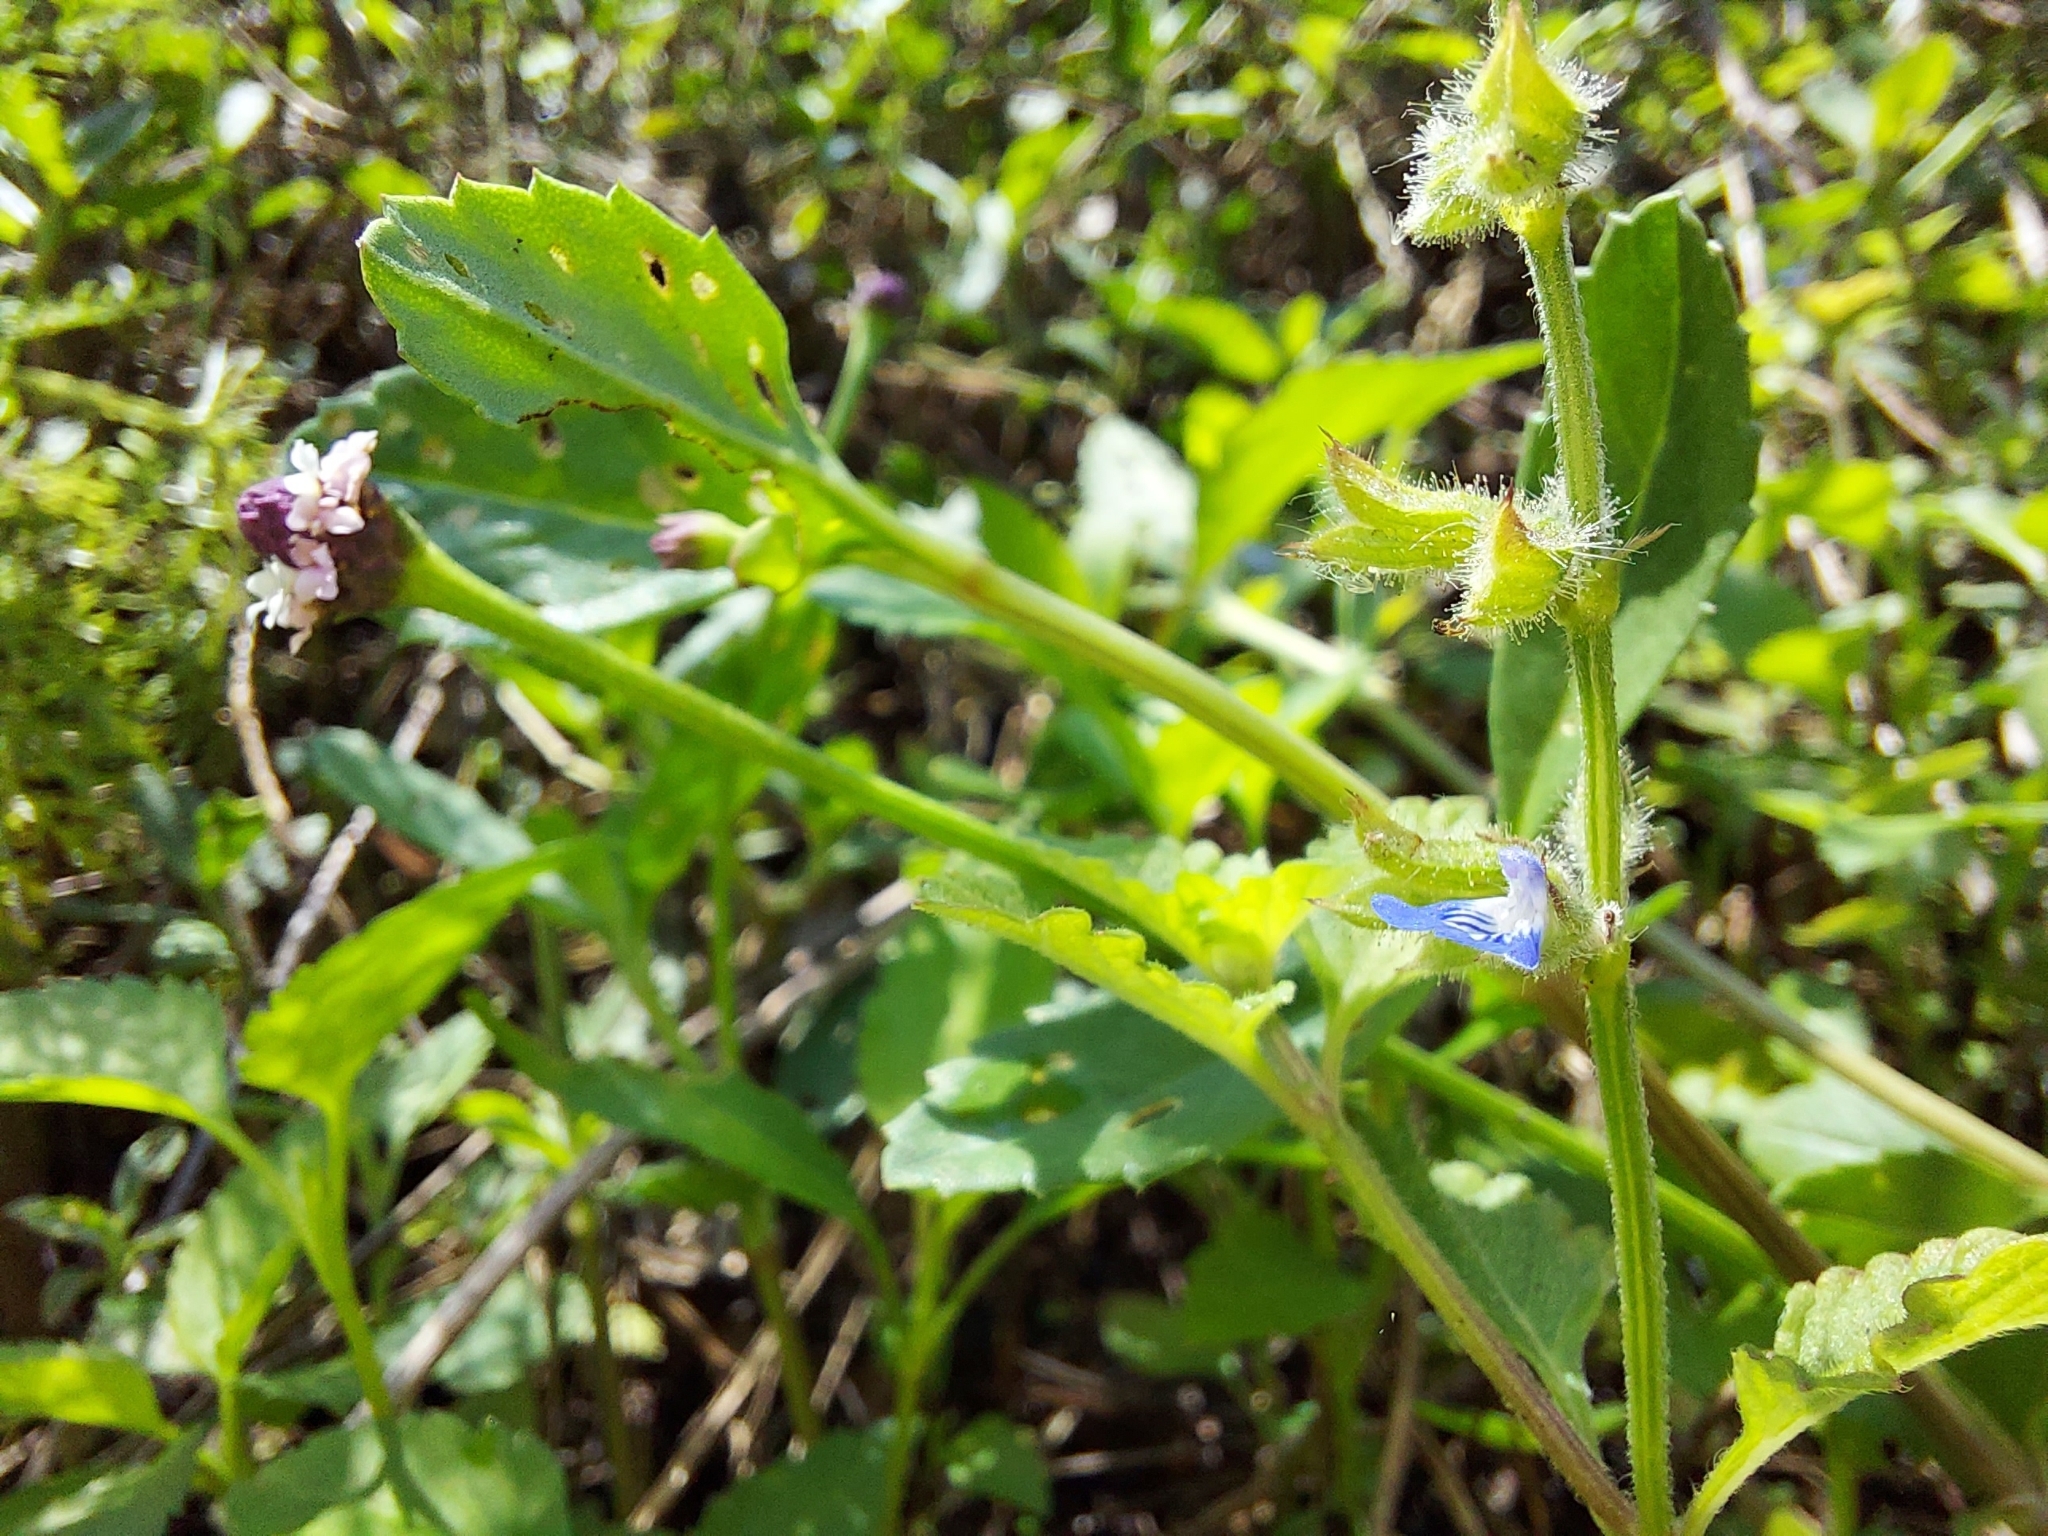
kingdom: Plantae
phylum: Tracheophyta
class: Magnoliopsida
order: Lamiales
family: Lamiaceae
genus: Salvia
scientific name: Salvia misella
